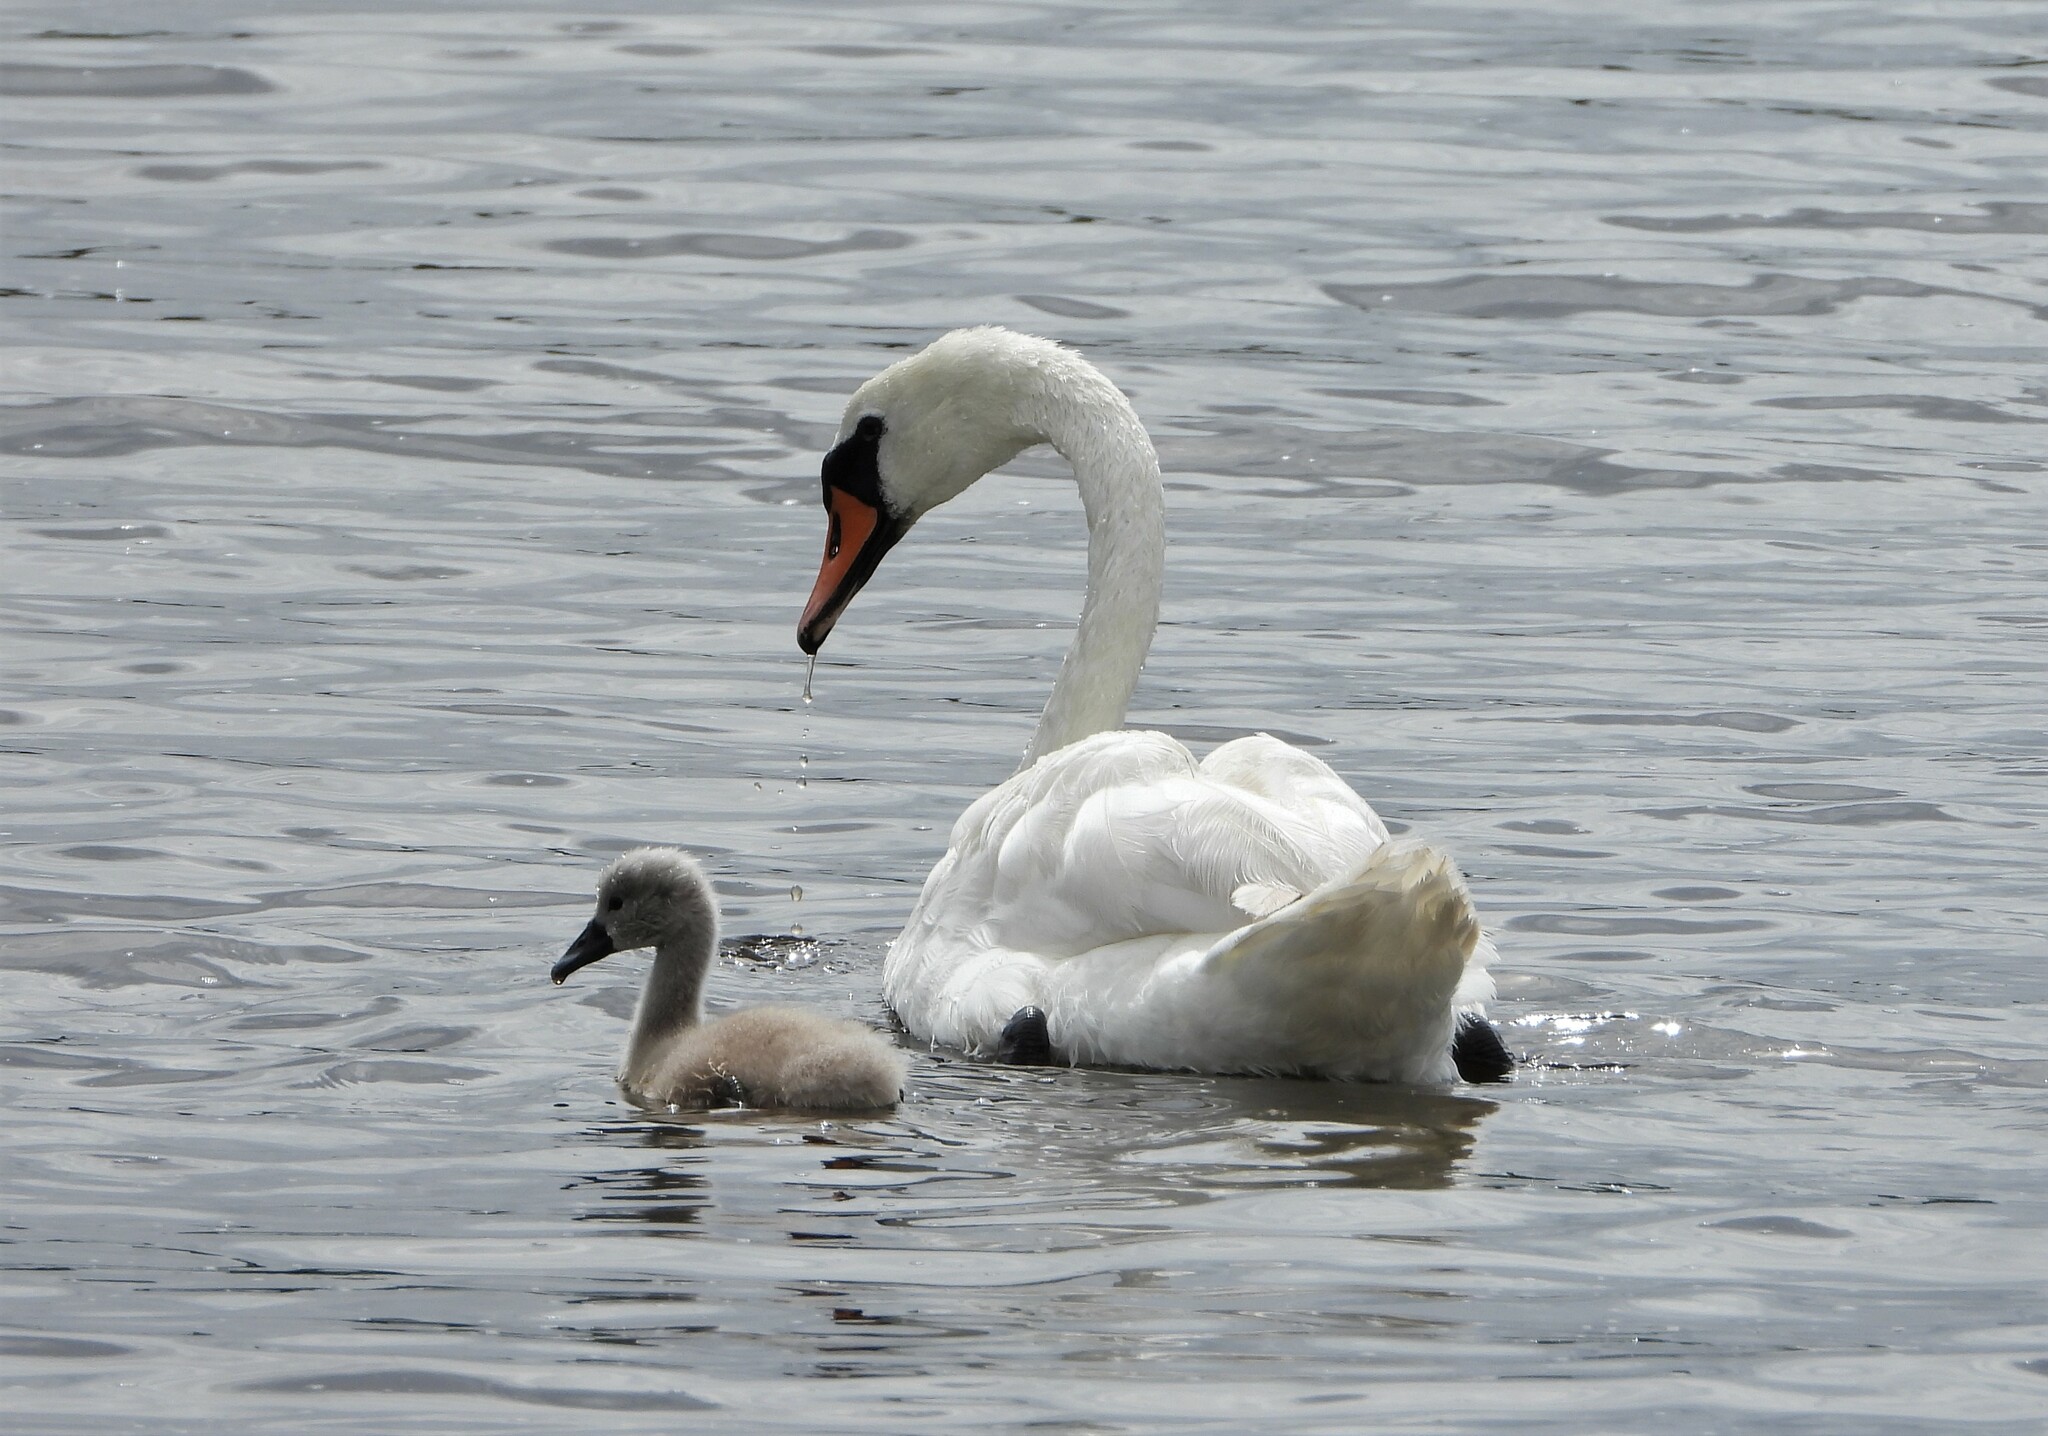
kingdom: Animalia
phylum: Chordata
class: Aves
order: Anseriformes
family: Anatidae
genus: Cygnus
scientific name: Cygnus olor
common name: Mute swan
